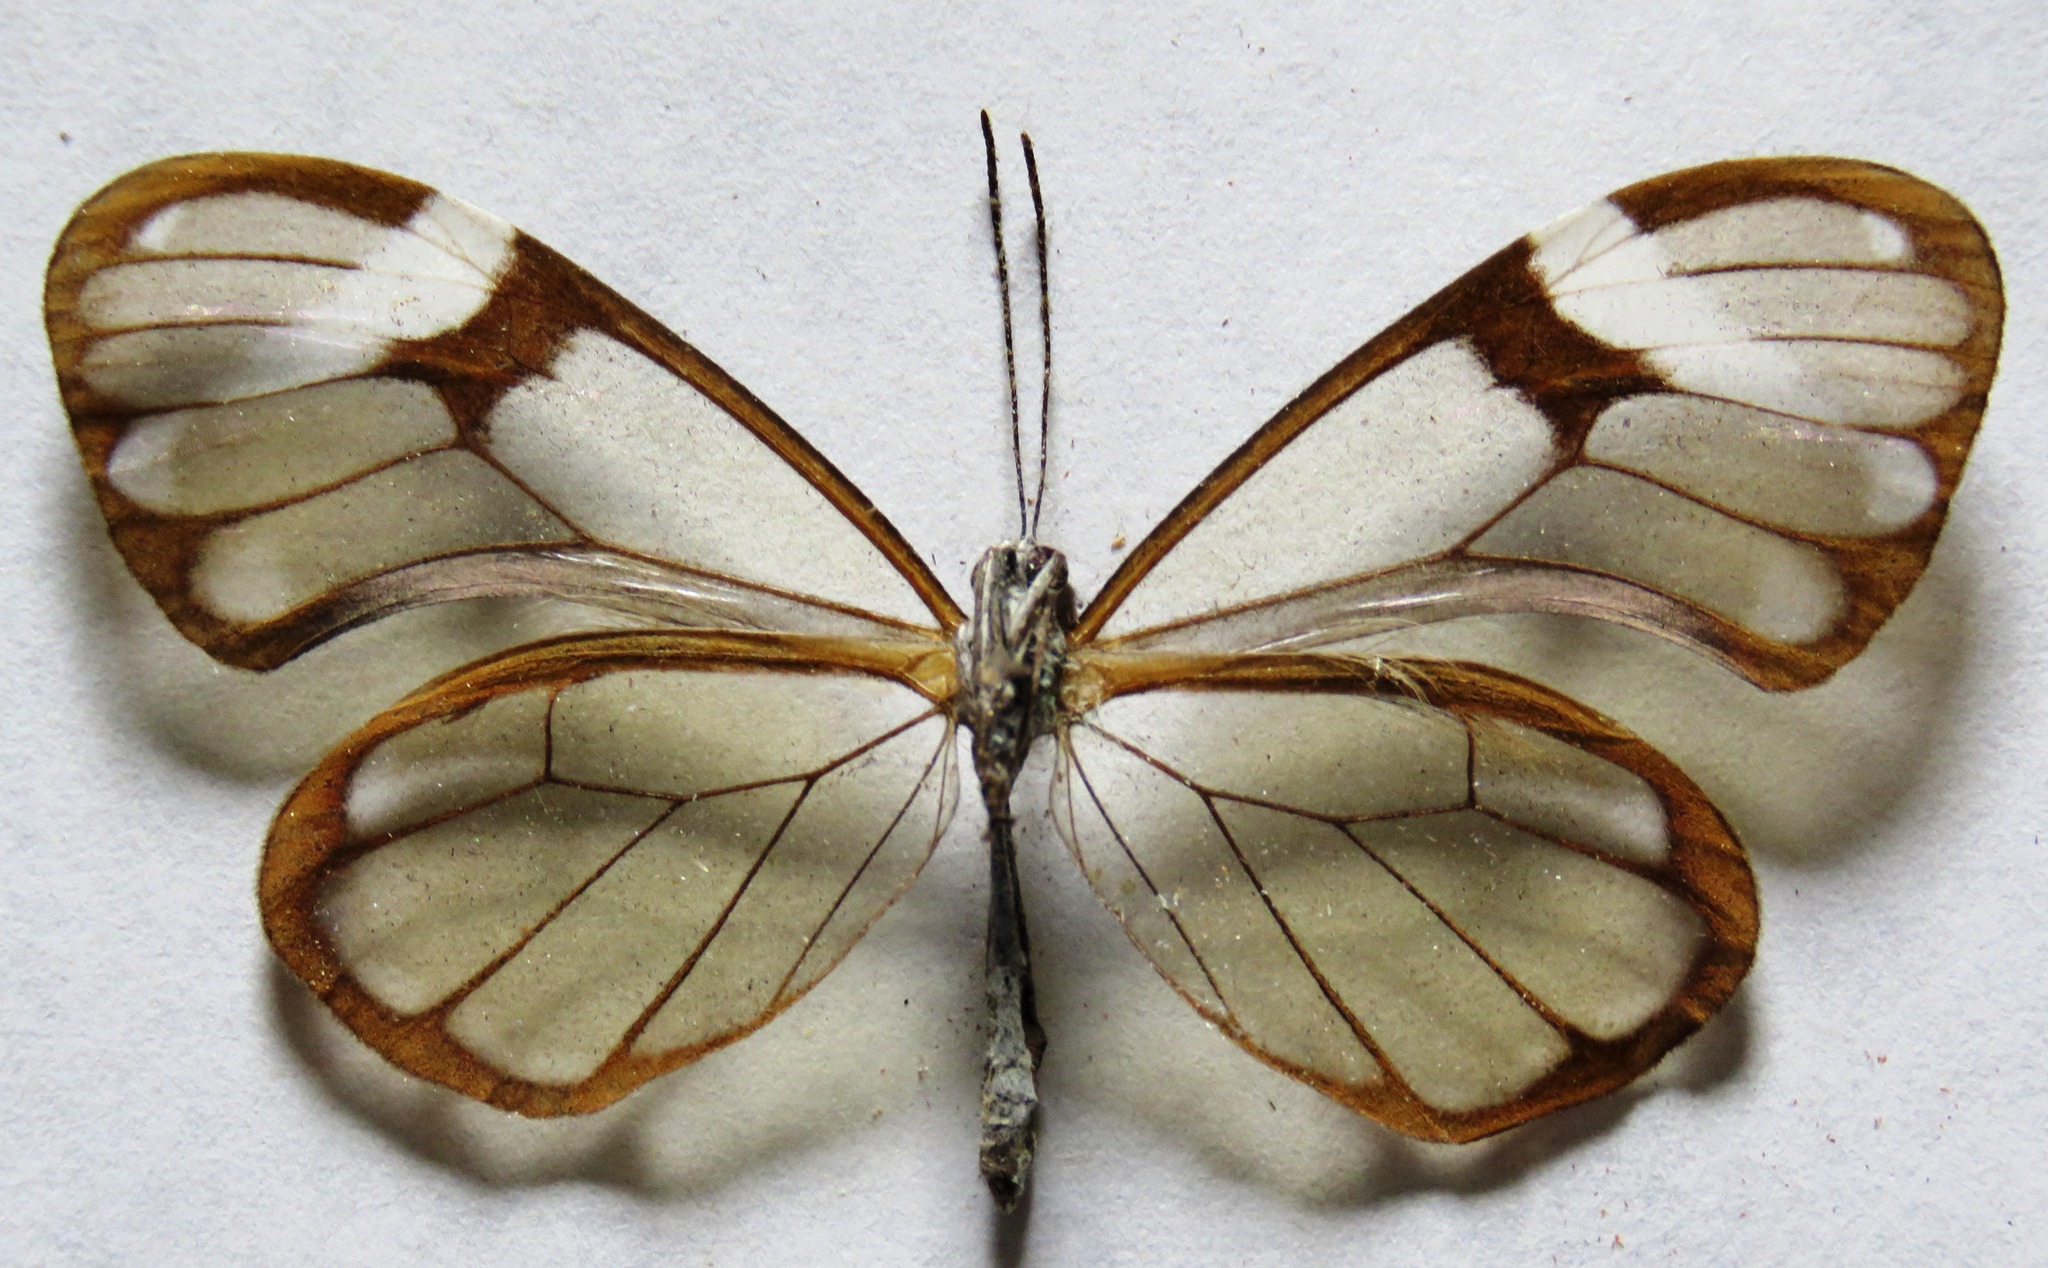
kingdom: Animalia
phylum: Arthropoda
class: Insecta
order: Lepidoptera
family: Nymphalidae
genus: Godyris
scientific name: Godyris nero
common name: Nero clearwing
